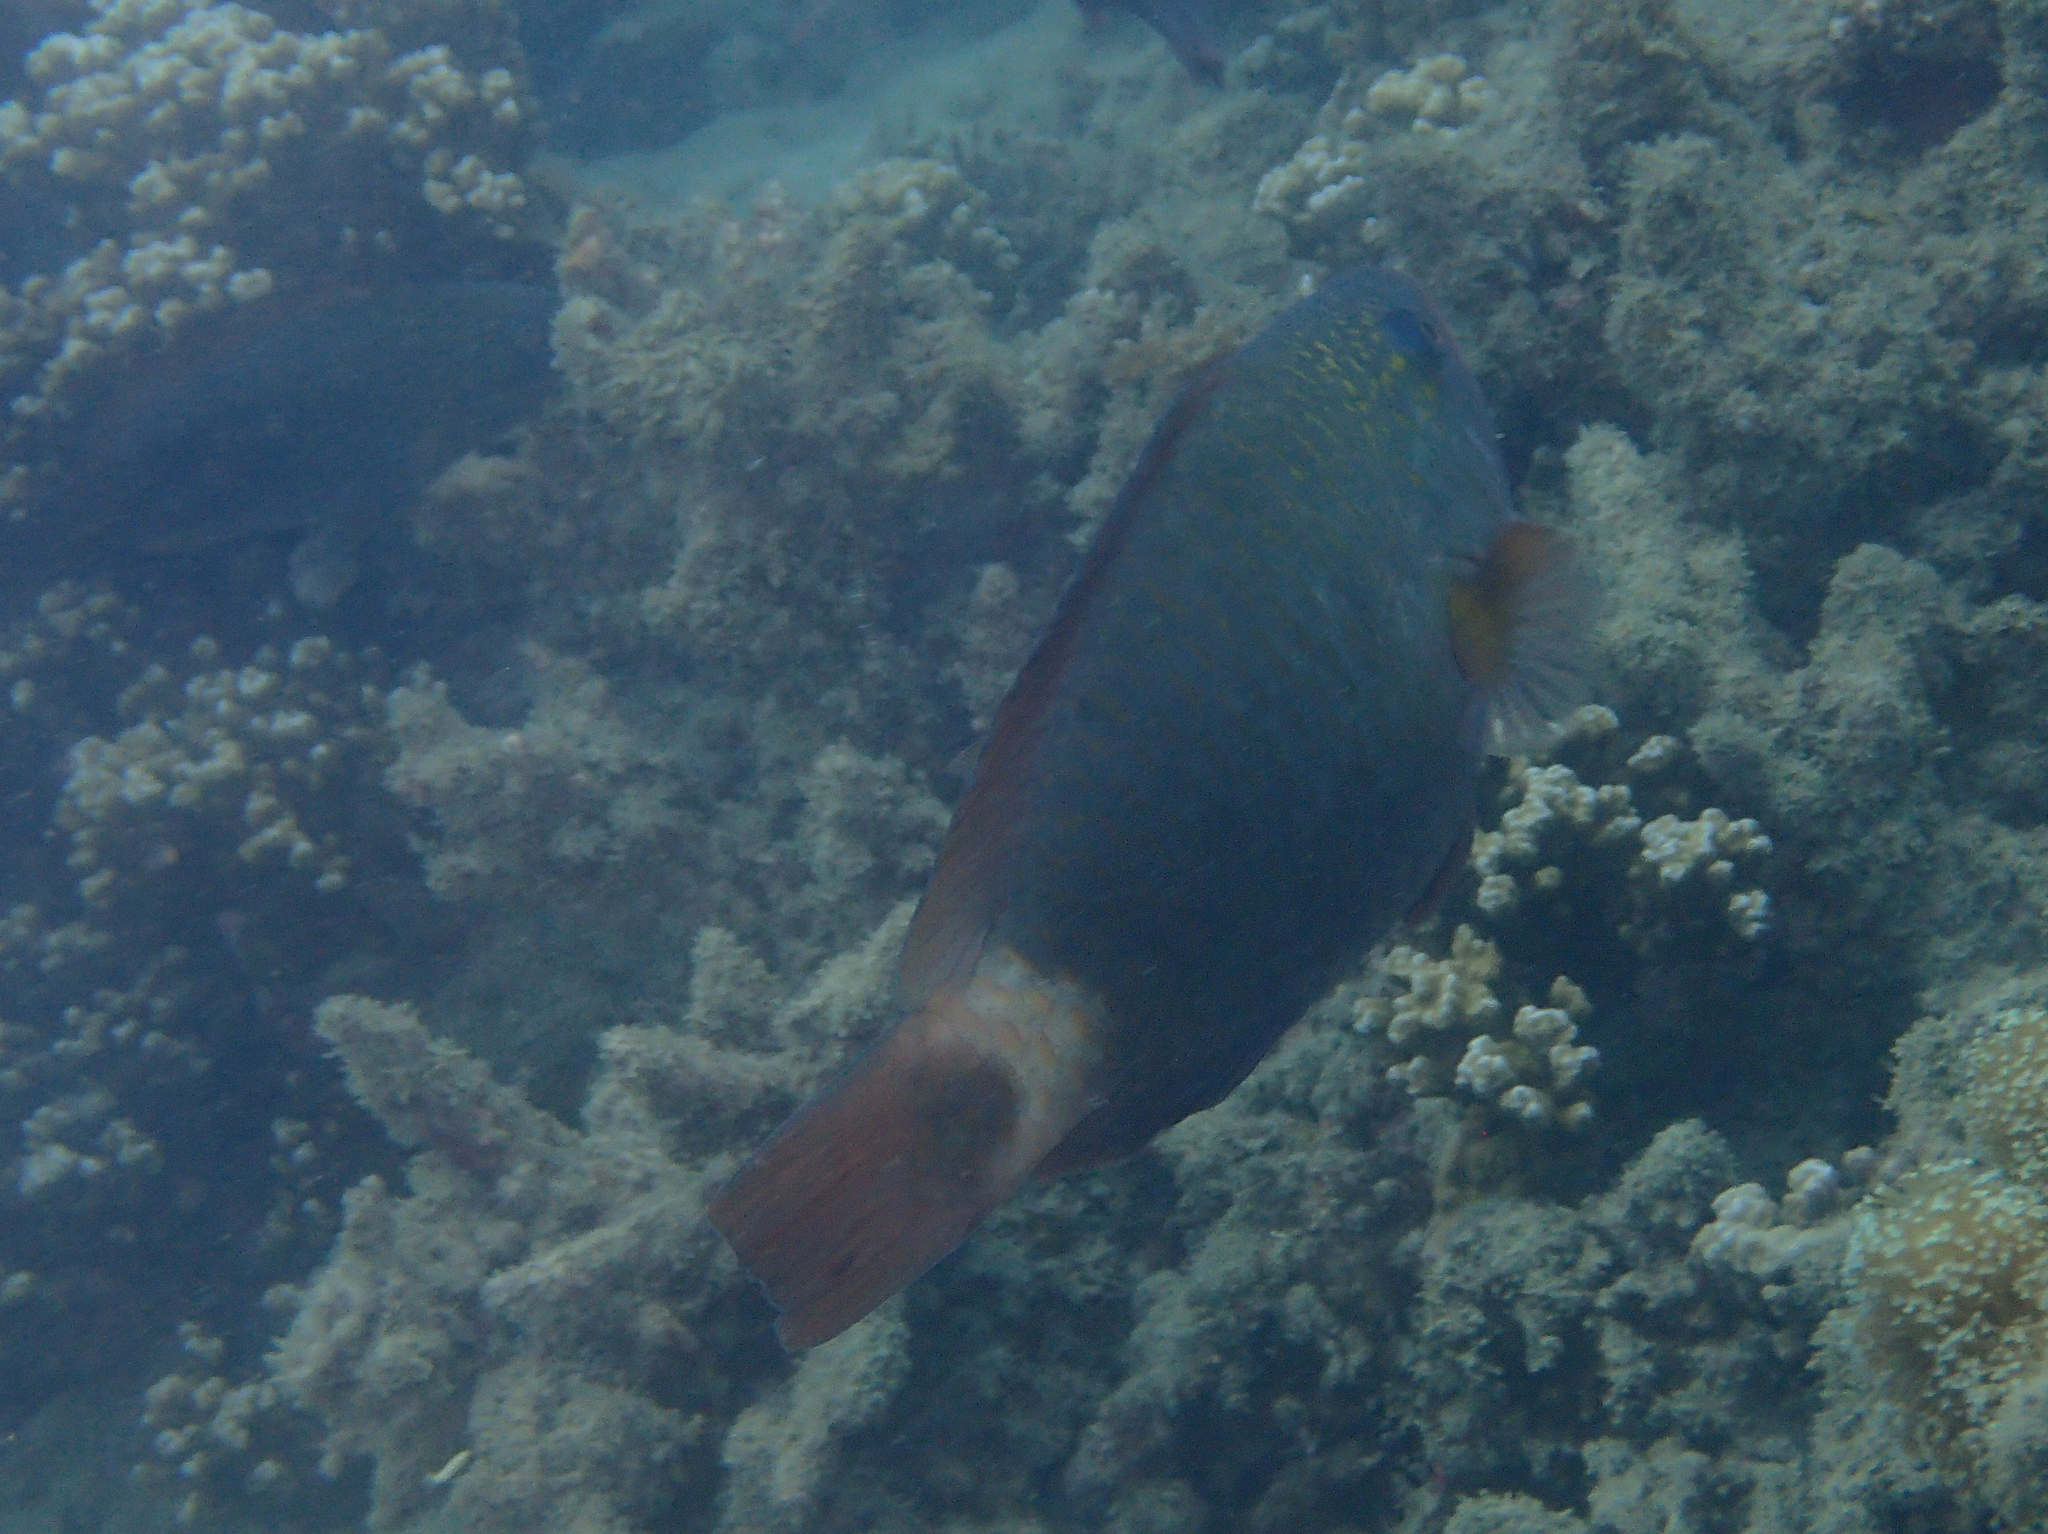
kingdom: Animalia
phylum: Chordata
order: Perciformes
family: Scaridae
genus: Chlorurus
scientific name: Chlorurus spilurus
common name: Bullethead parrotfish
